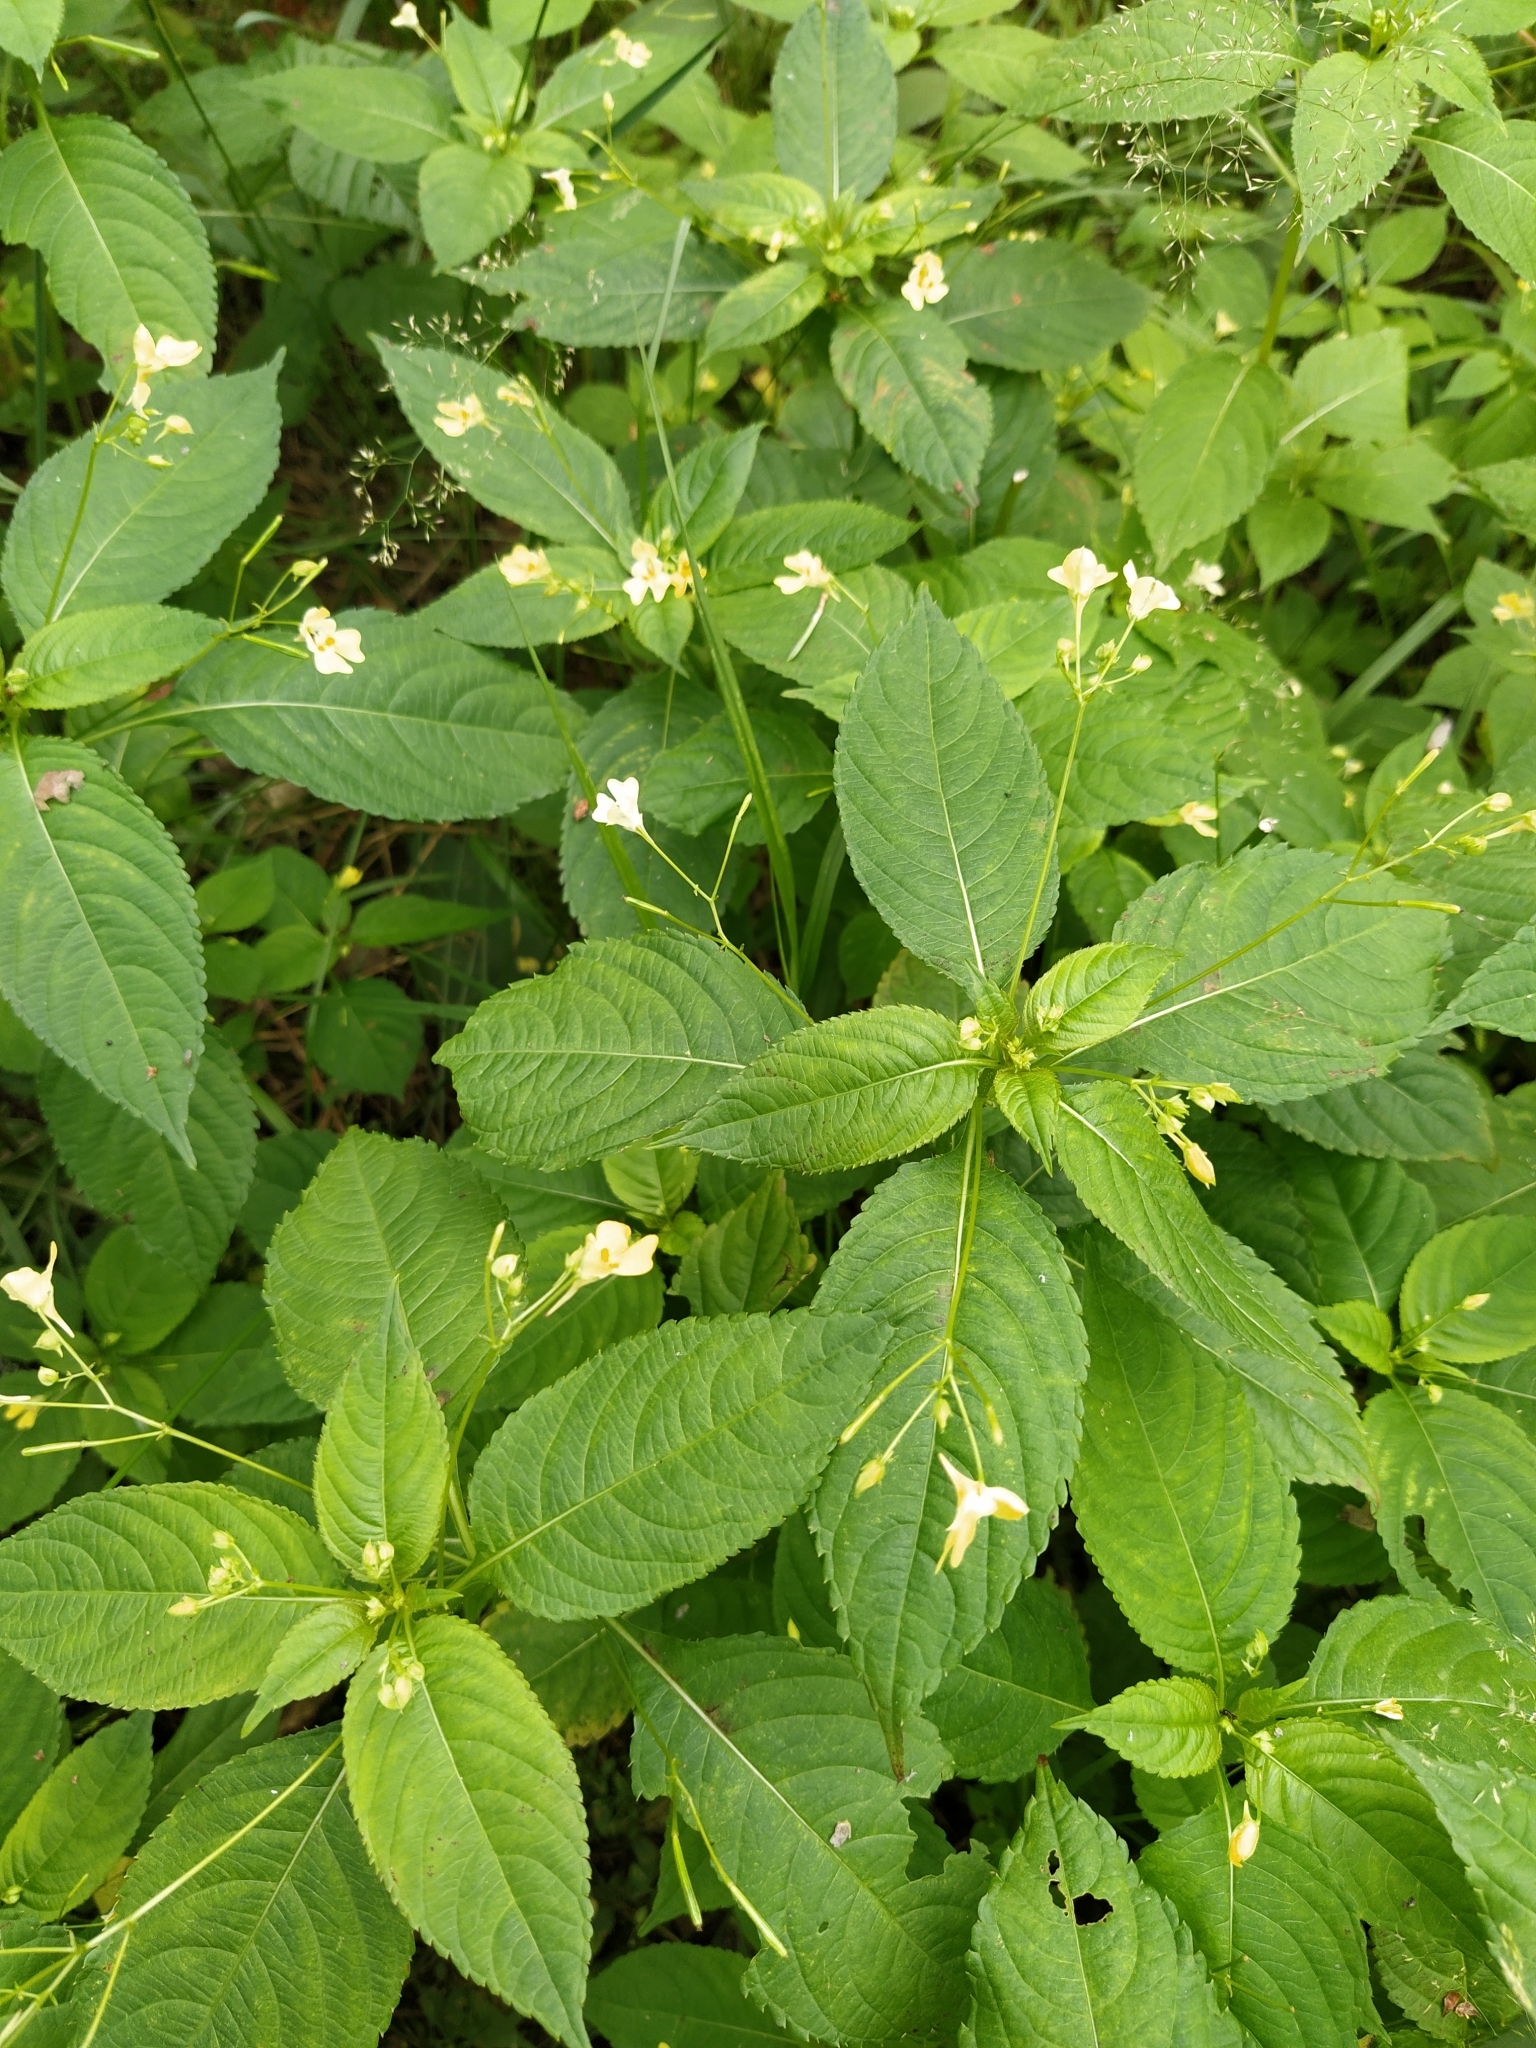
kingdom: Plantae
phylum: Tracheophyta
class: Magnoliopsida
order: Ericales
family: Balsaminaceae
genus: Impatiens
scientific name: Impatiens parviflora
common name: Small balsam
